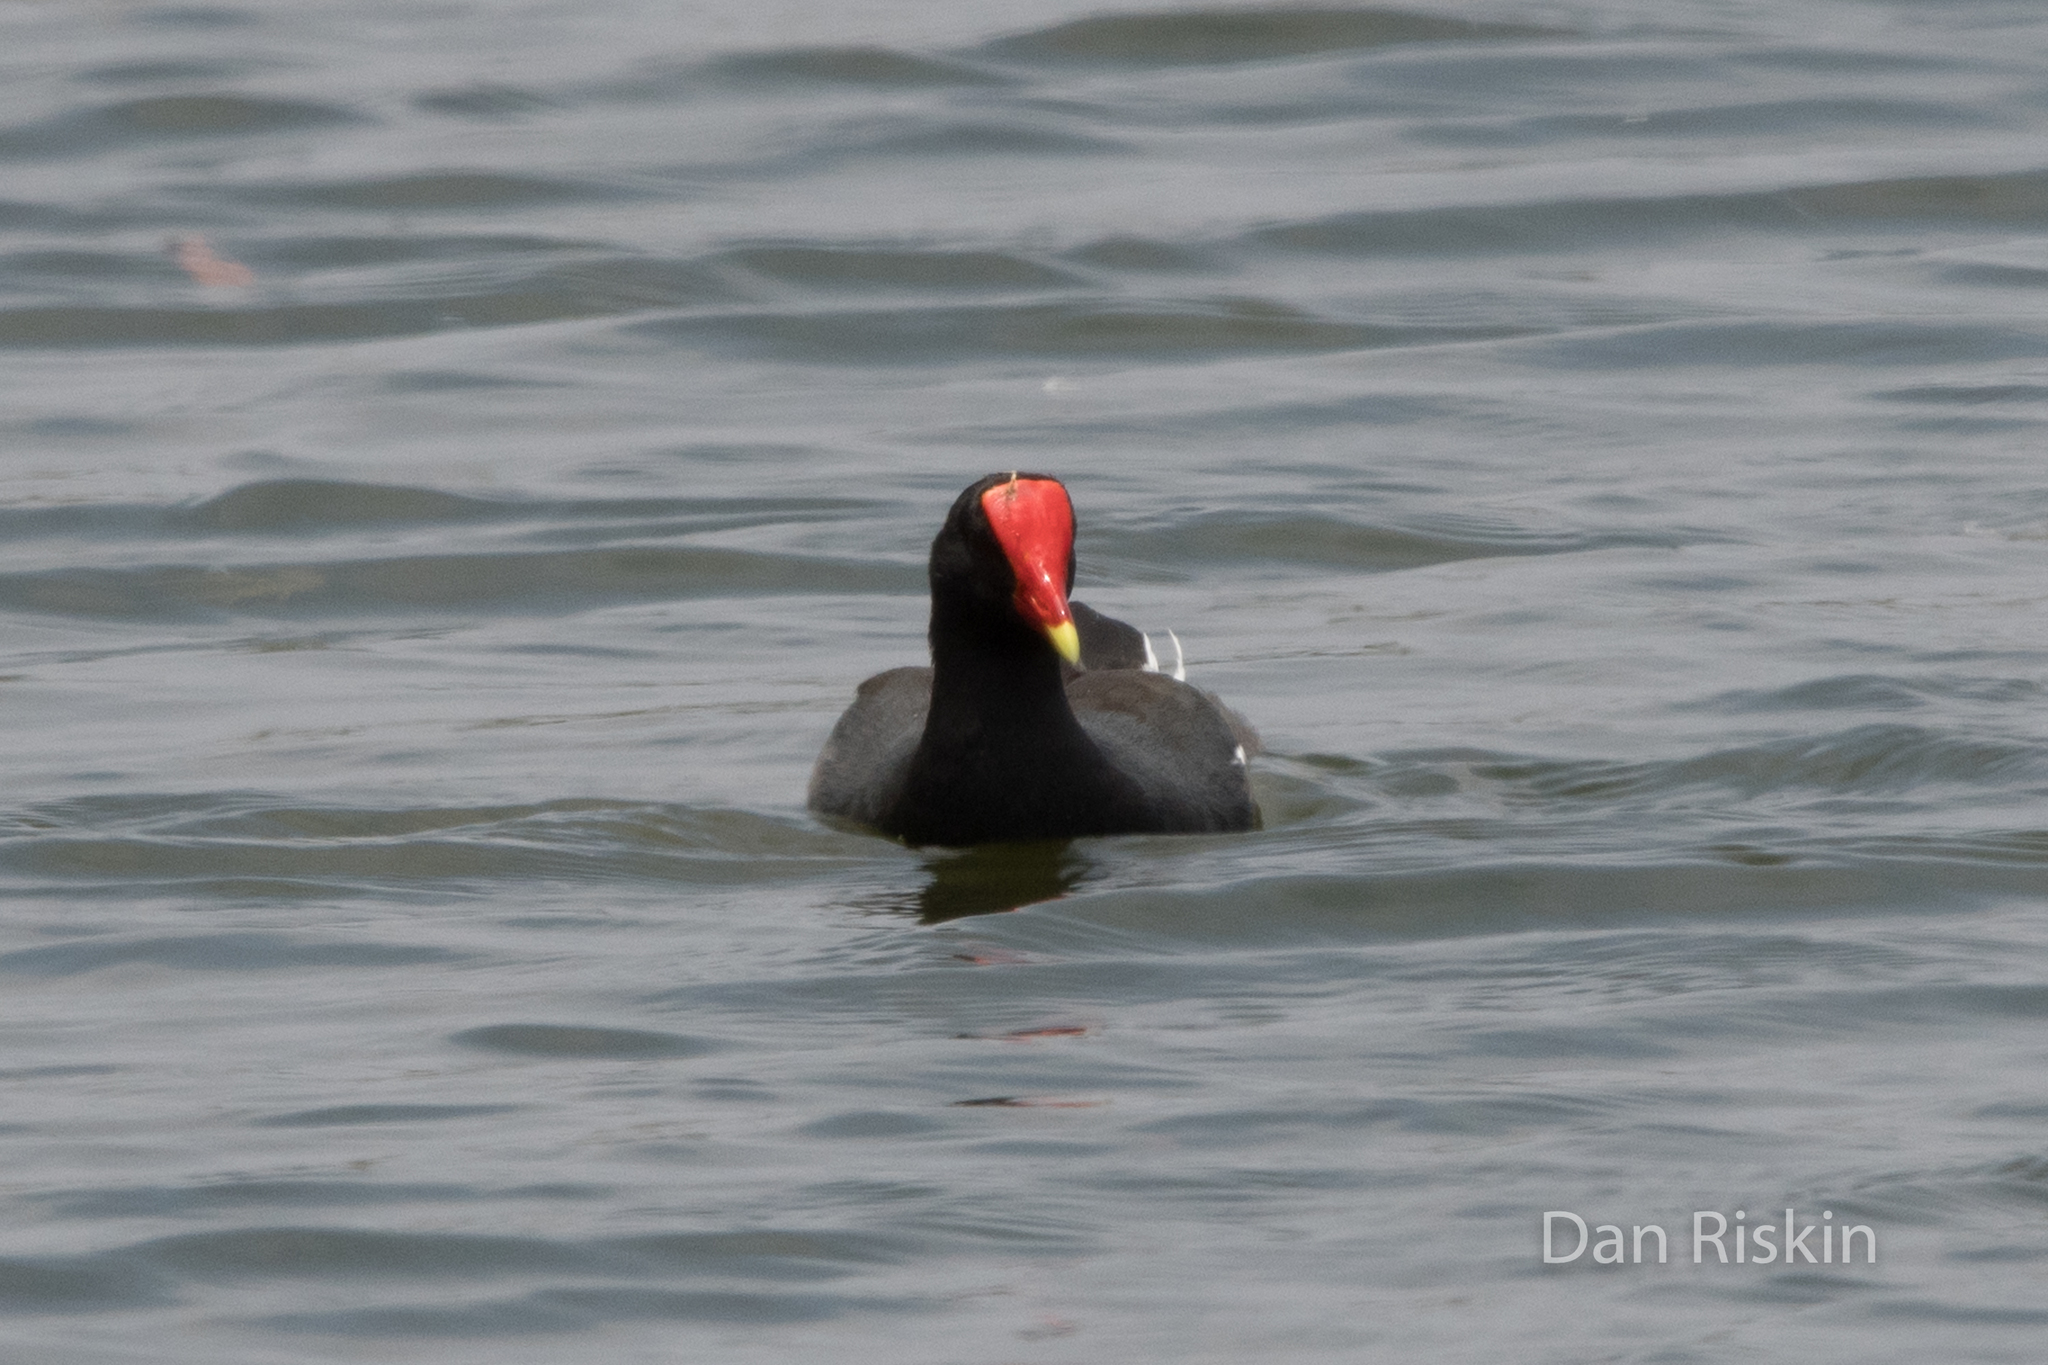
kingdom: Animalia
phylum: Chordata
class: Aves
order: Gruiformes
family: Rallidae
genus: Gallinula
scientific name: Gallinula chloropus
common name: Common moorhen
